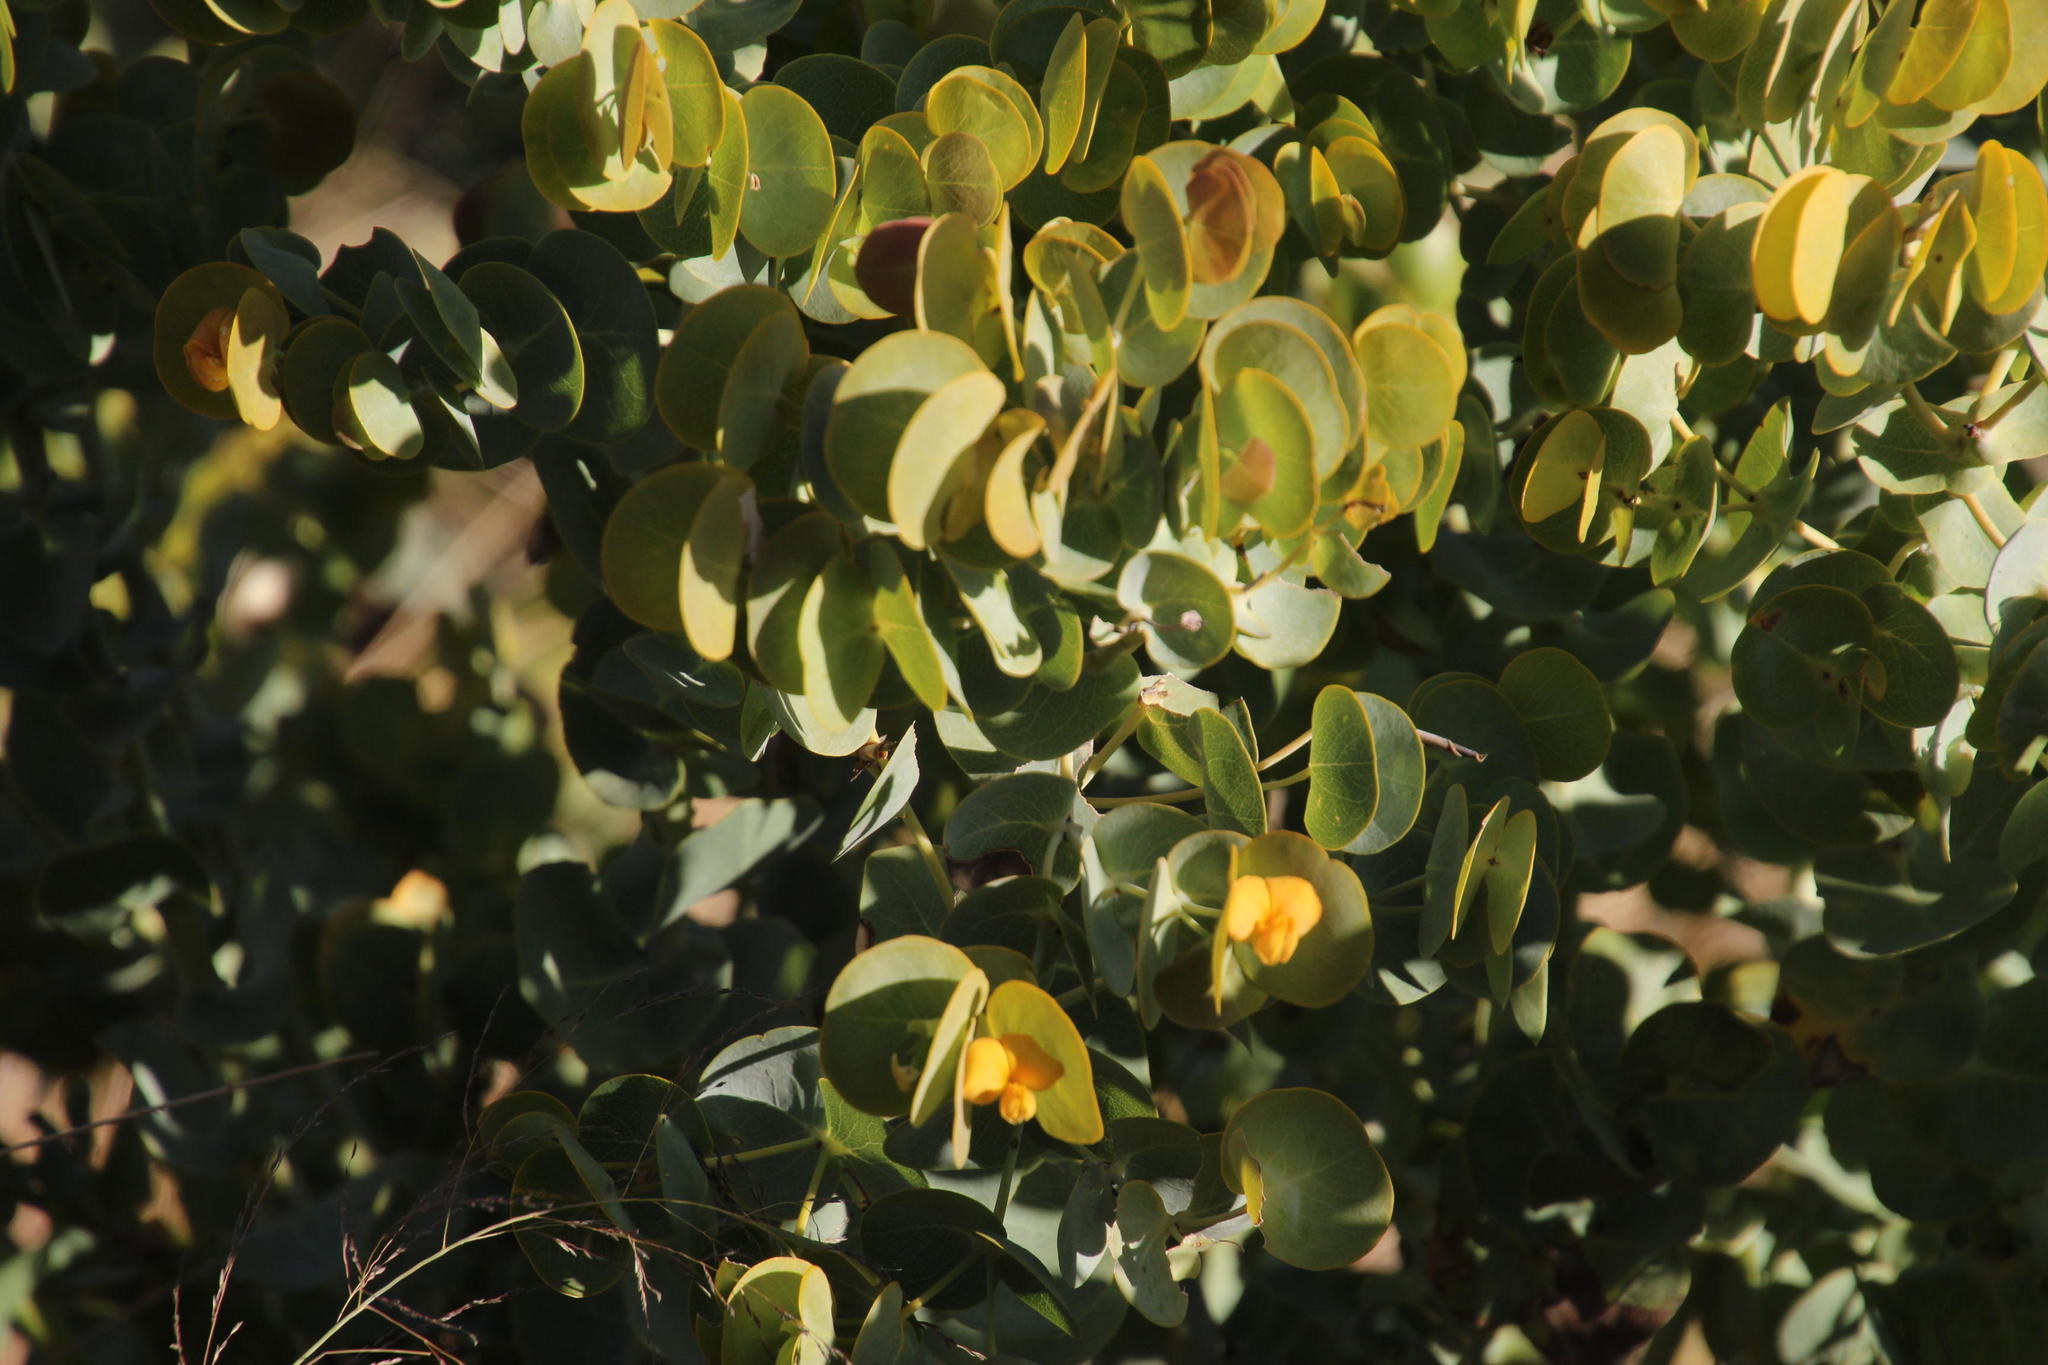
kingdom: Plantae
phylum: Tracheophyta
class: Magnoliopsida
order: Fabales
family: Fabaceae
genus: Rafnia
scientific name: Rafnia amplexicaulis
